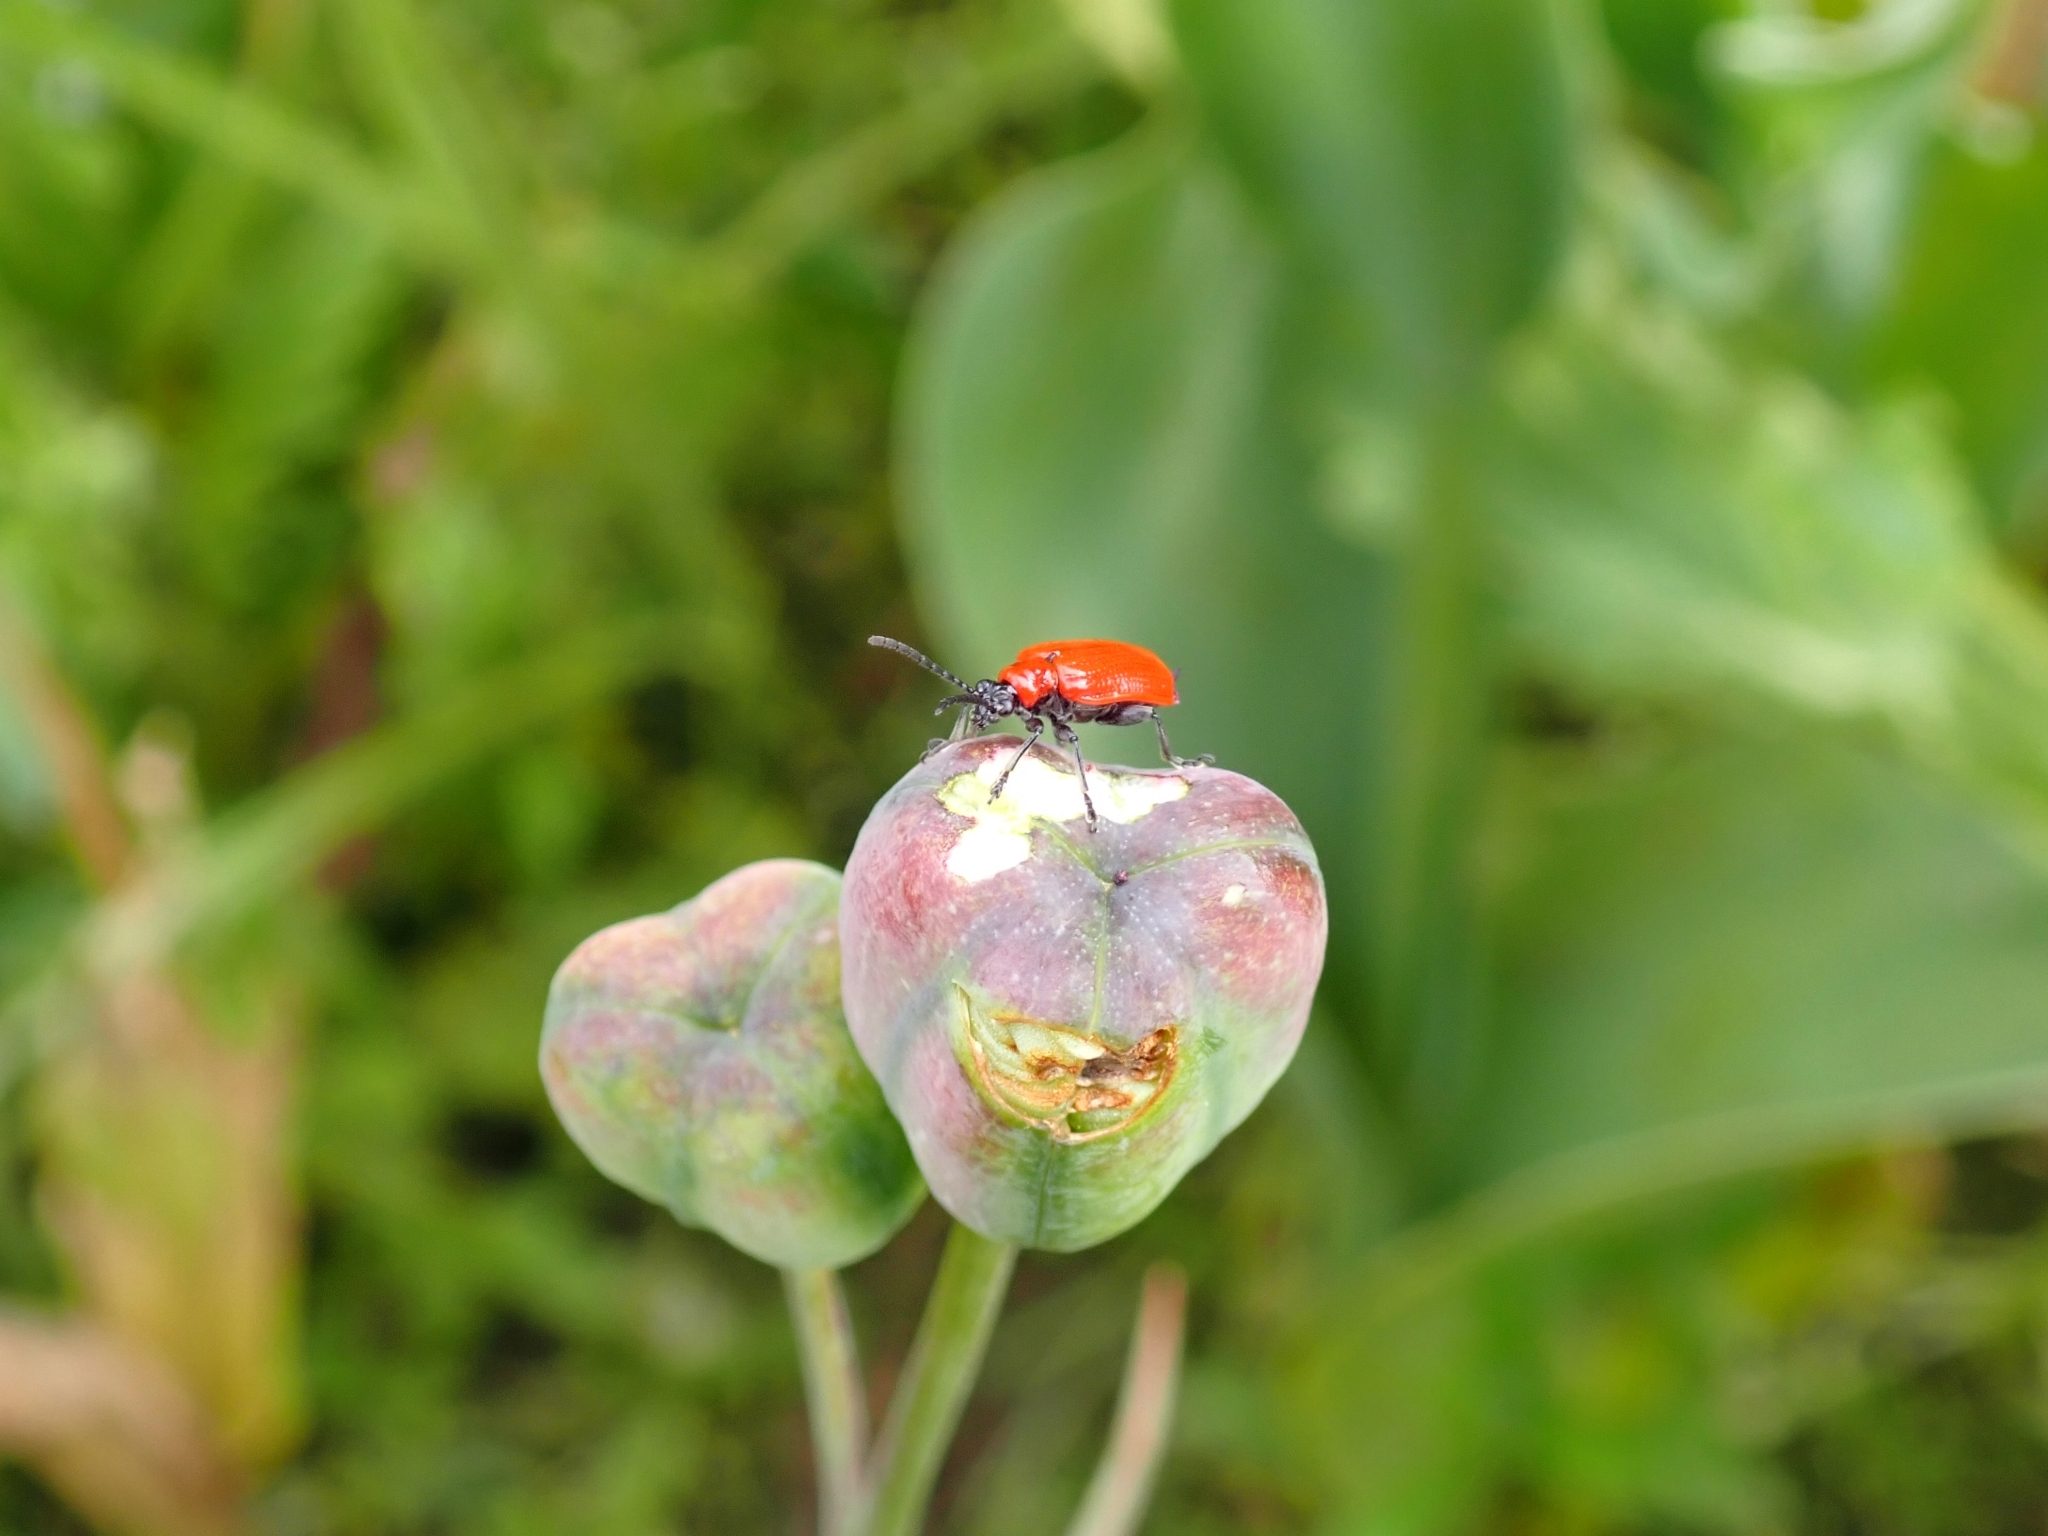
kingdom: Animalia
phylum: Arthropoda
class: Insecta
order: Coleoptera
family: Chrysomelidae
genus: Lilioceris
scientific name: Lilioceris lilii
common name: Lily beetle
